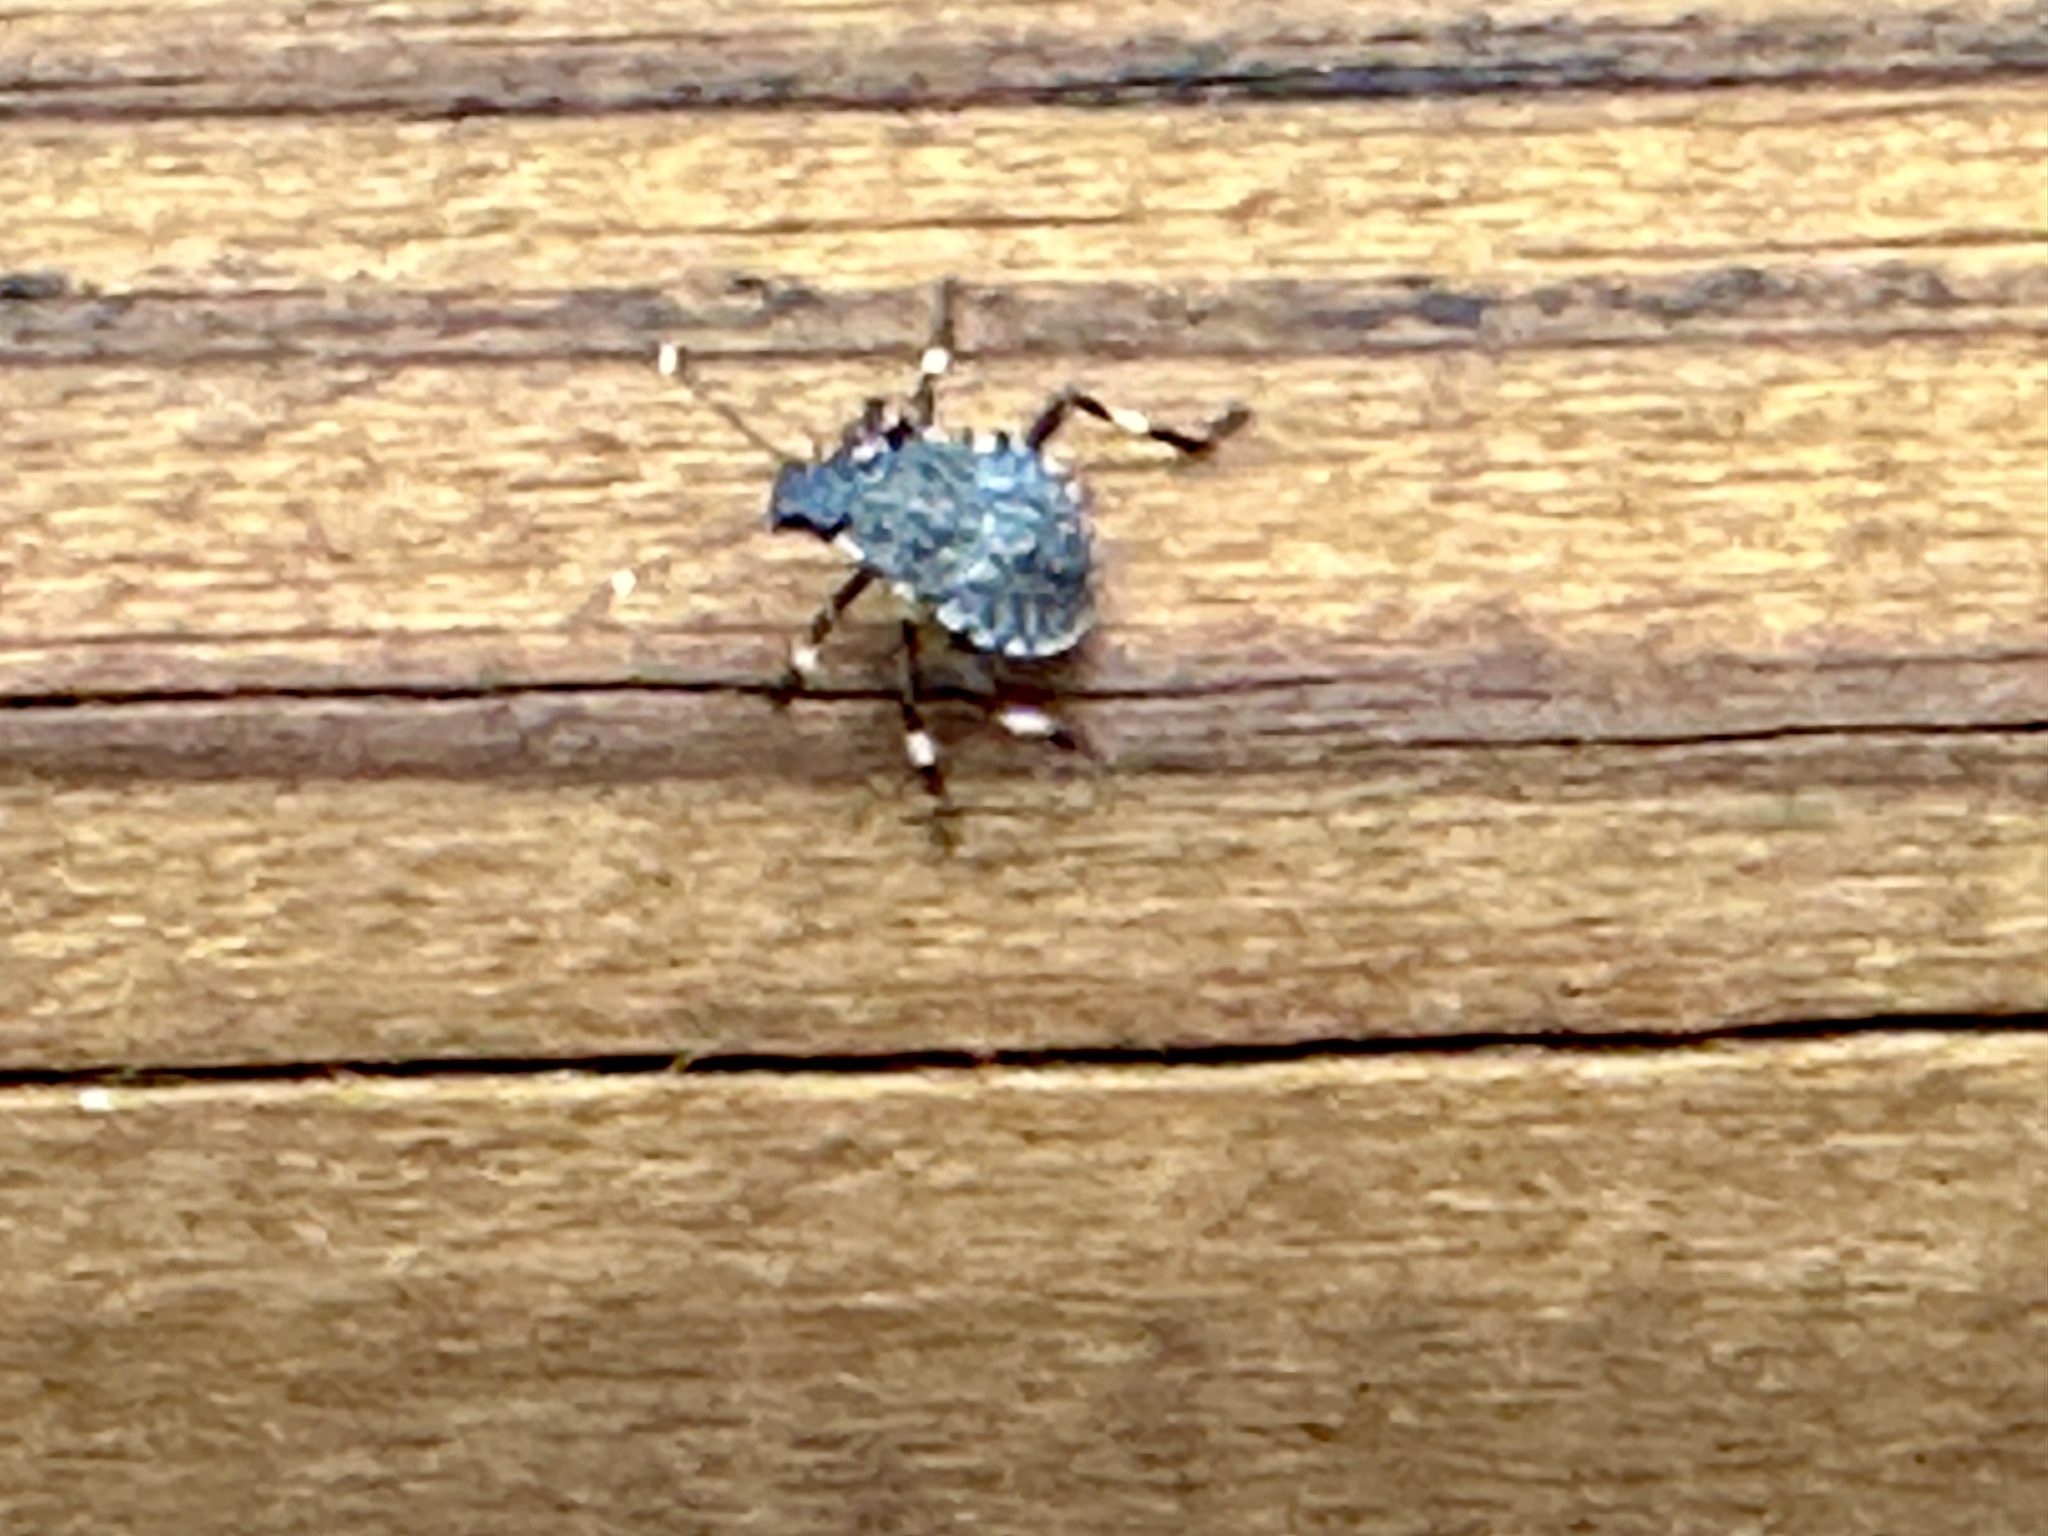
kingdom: Animalia
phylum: Arthropoda
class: Insecta
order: Hemiptera
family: Pentatomidae
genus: Halyomorpha
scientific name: Halyomorpha halys
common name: Brown marmorated stink bug
